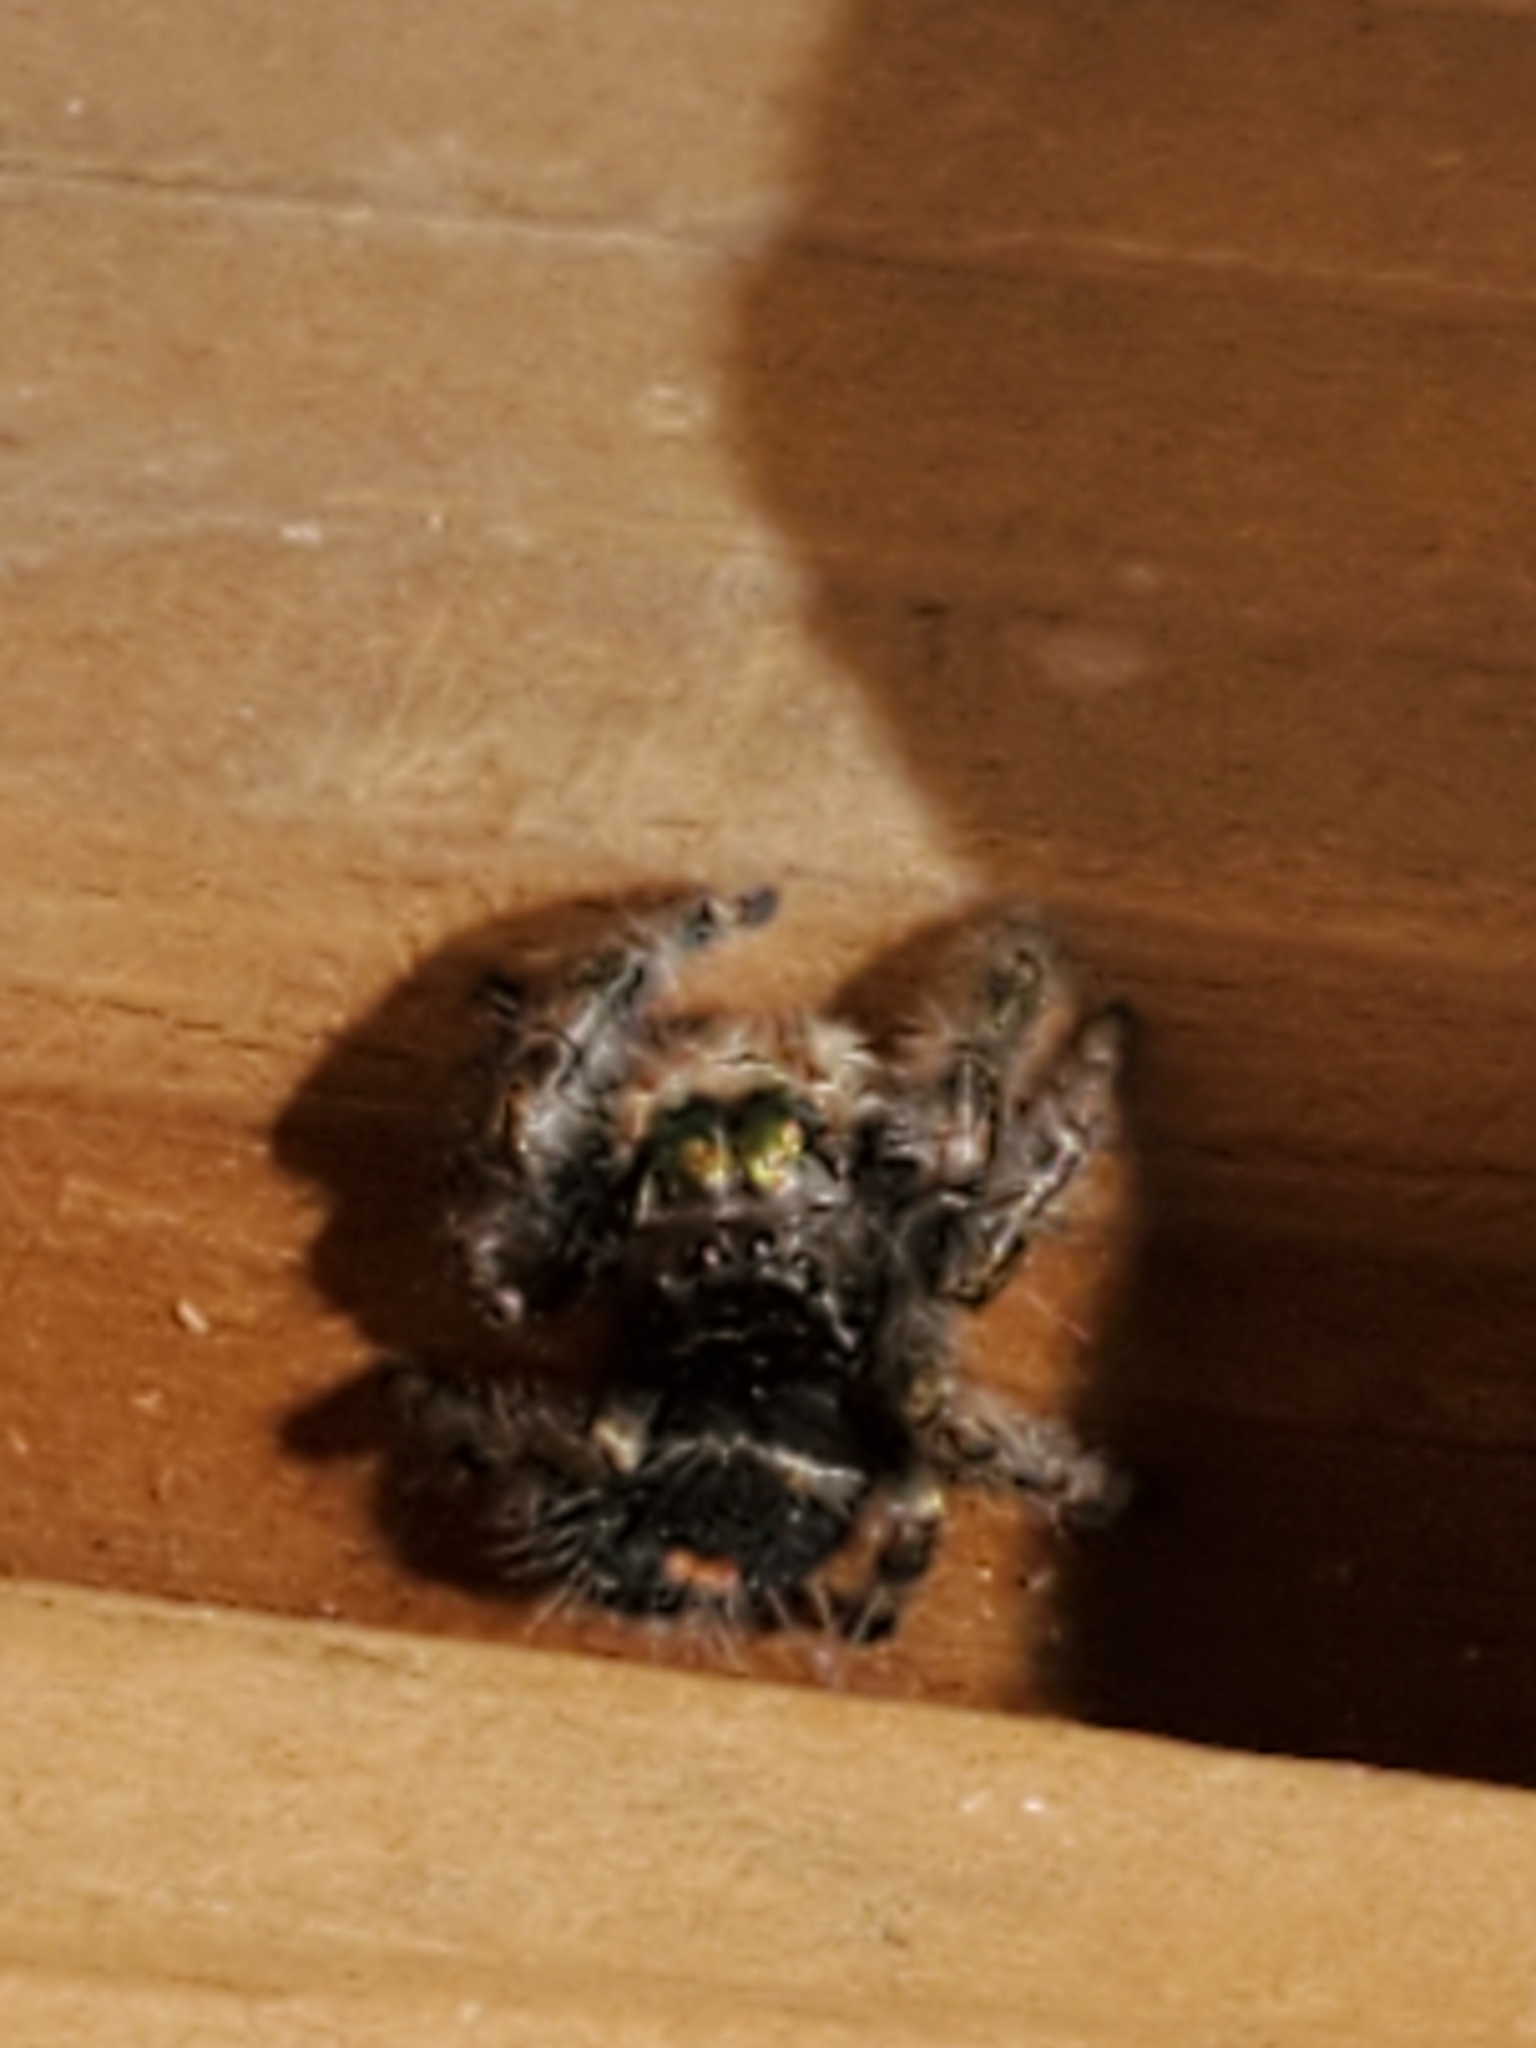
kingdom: Animalia
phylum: Arthropoda
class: Arachnida
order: Araneae
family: Salticidae
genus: Phidippus
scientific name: Phidippus audax
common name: Bold jumper
